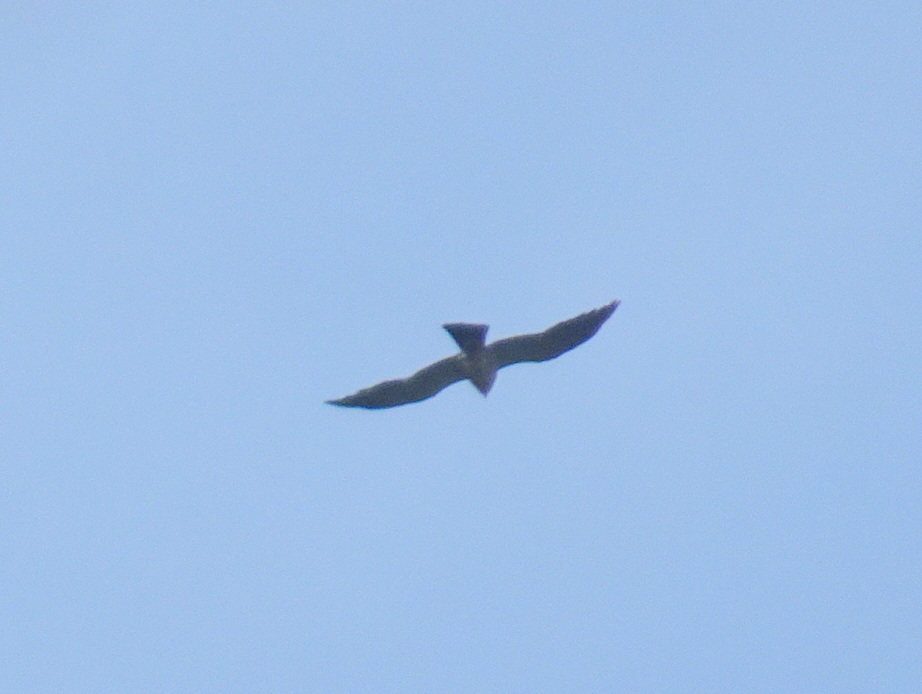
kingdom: Animalia
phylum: Chordata
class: Aves
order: Accipitriformes
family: Accipitridae
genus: Ictinia
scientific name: Ictinia mississippiensis
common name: Mississippi kite
